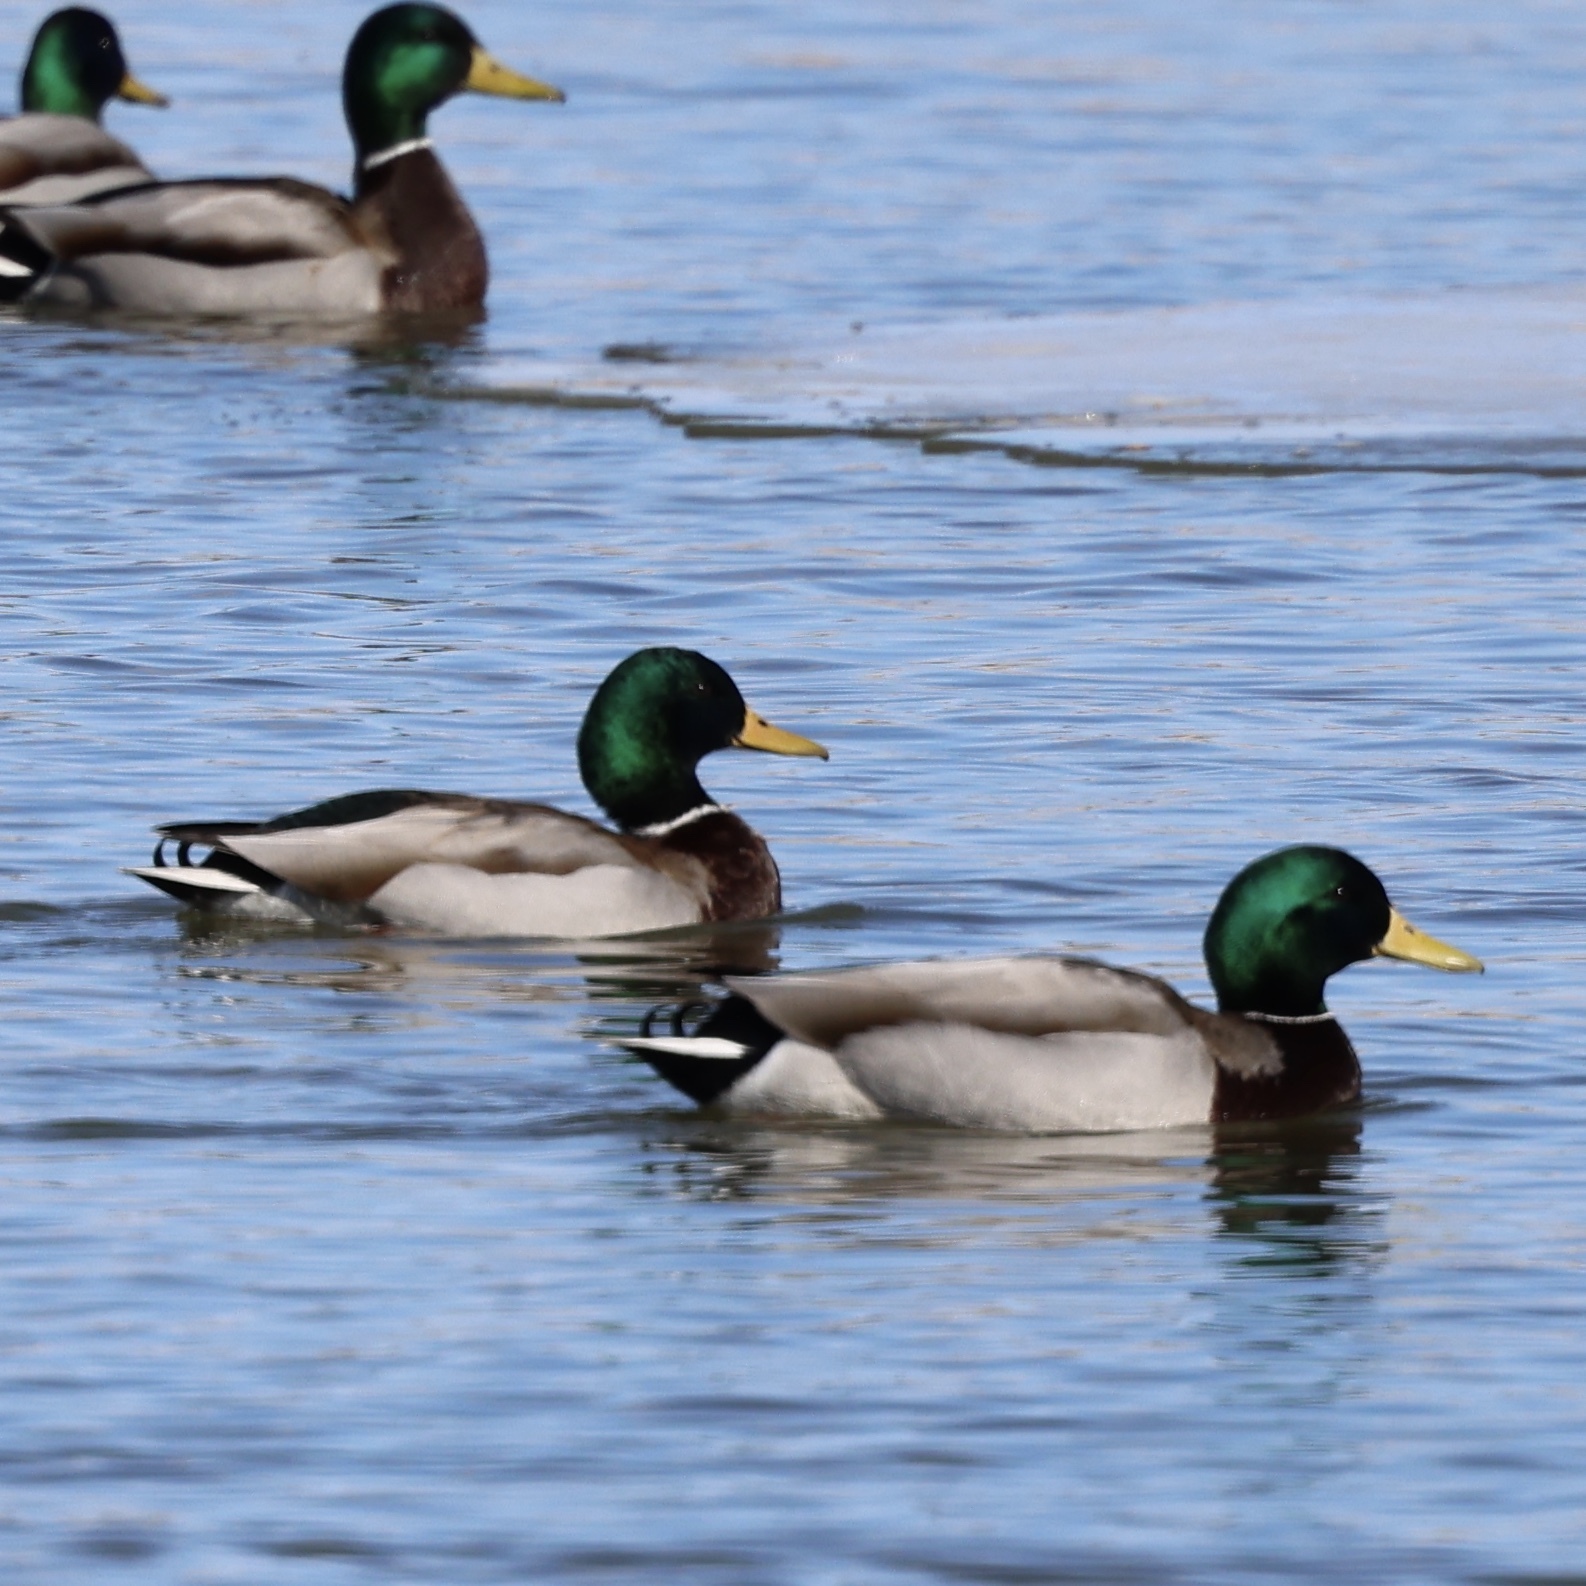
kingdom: Animalia
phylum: Chordata
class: Aves
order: Anseriformes
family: Anatidae
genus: Anas
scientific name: Anas platyrhynchos
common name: Mallard
